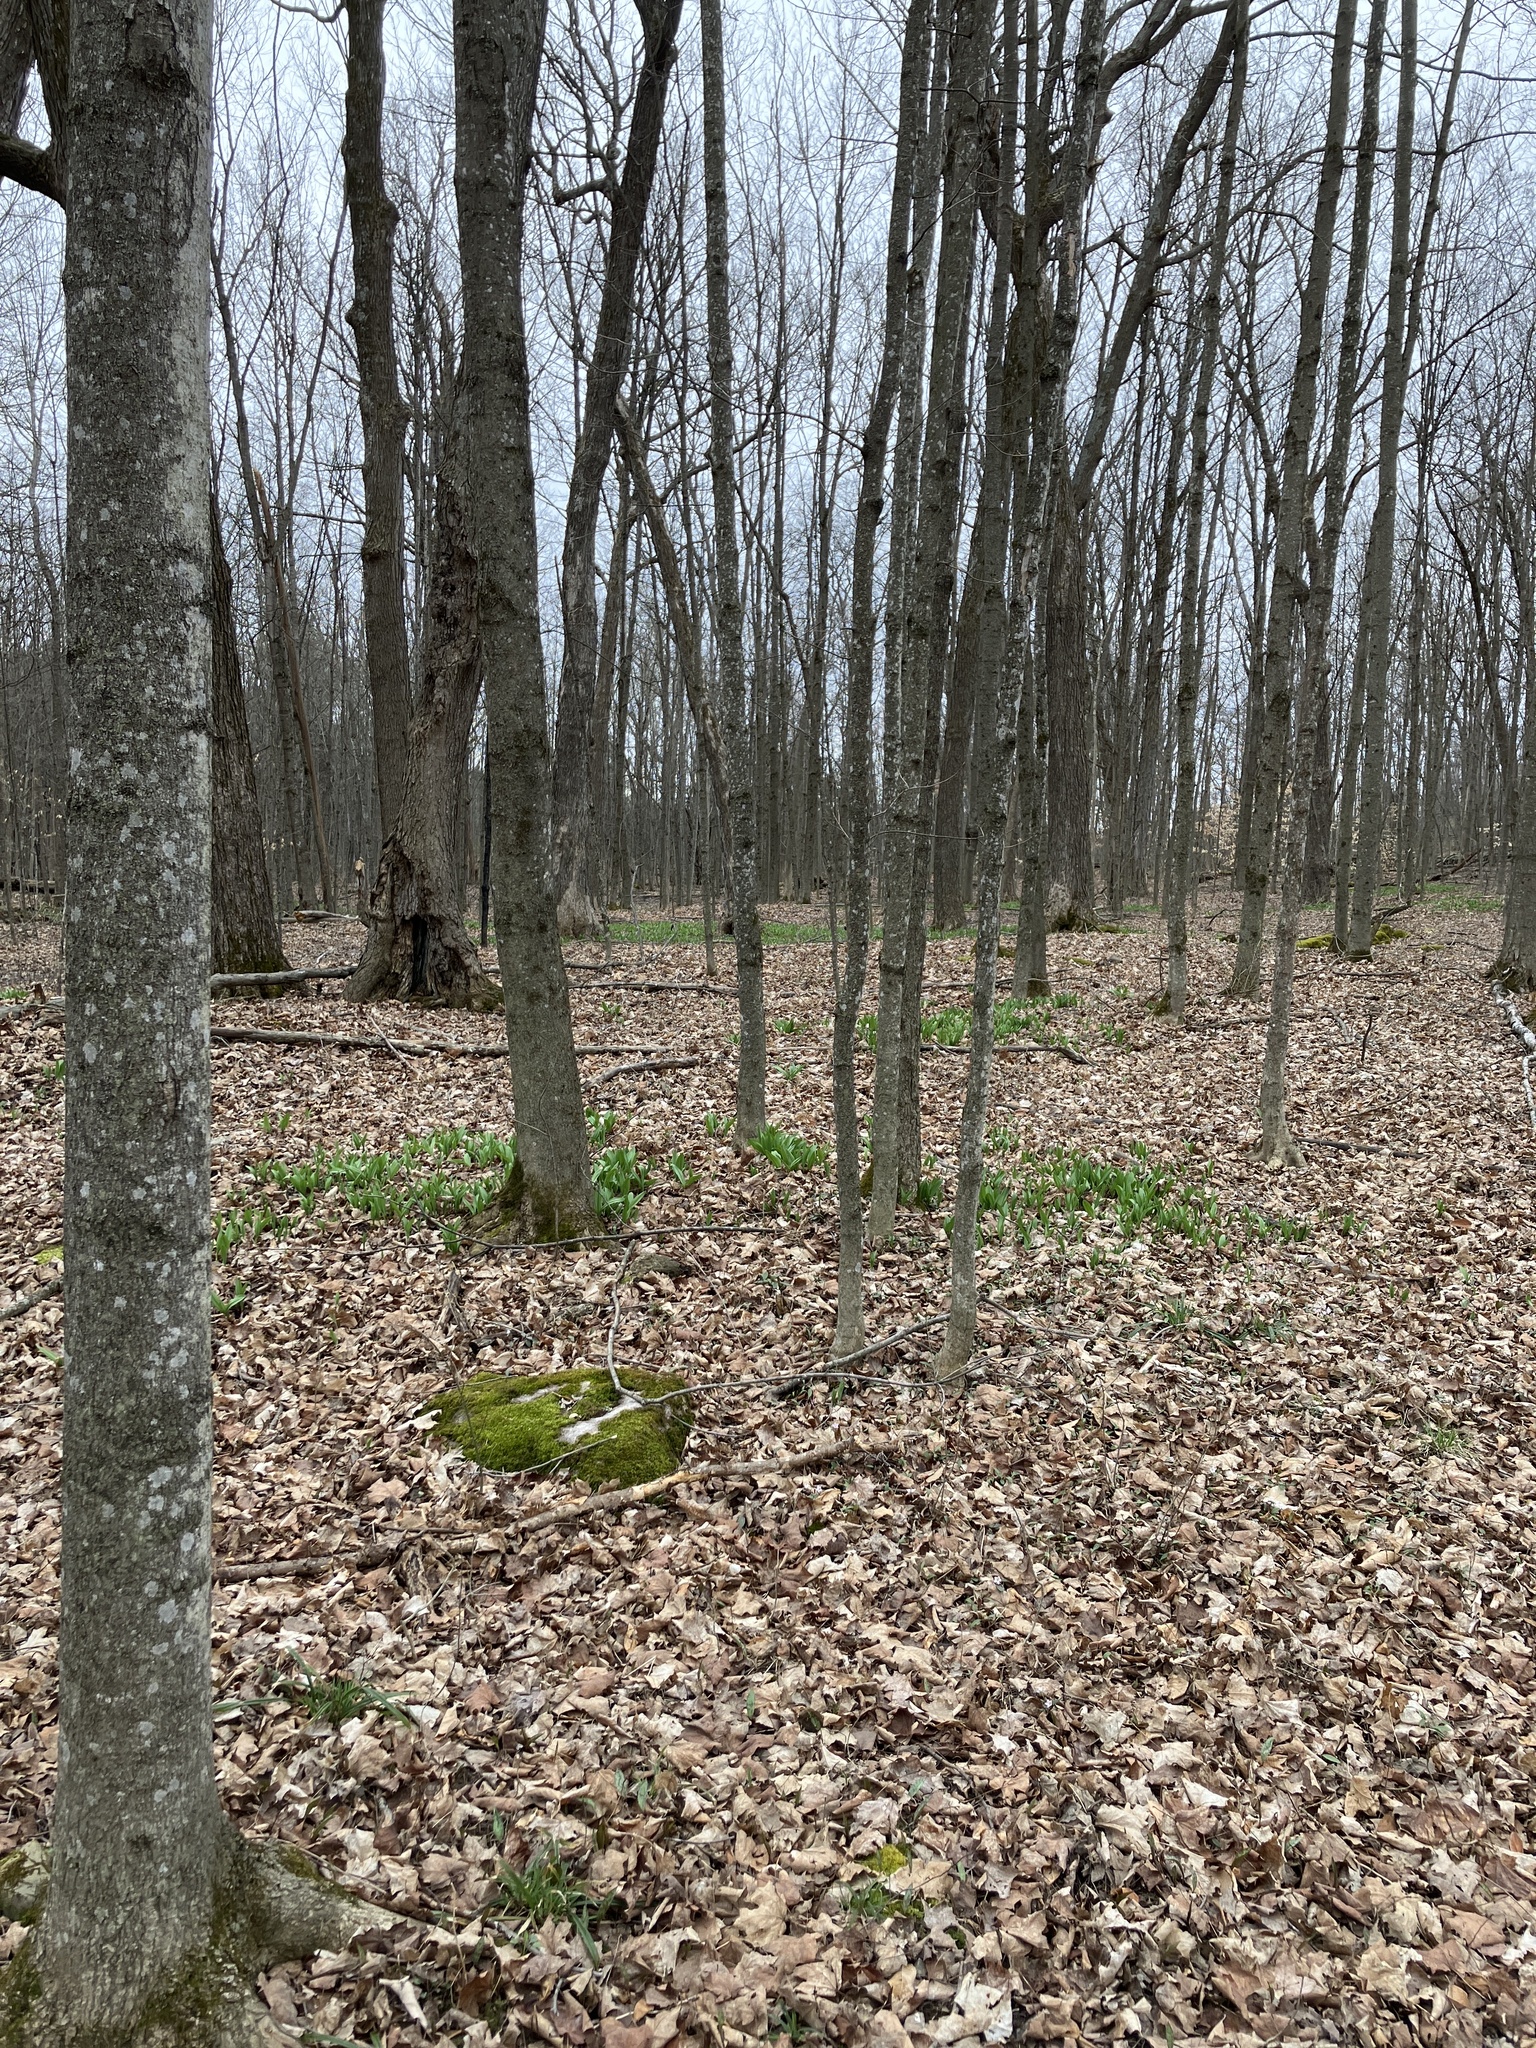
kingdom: Plantae
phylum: Tracheophyta
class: Liliopsida
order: Asparagales
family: Amaryllidaceae
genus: Allium
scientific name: Allium tricoccum
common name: Ramp
